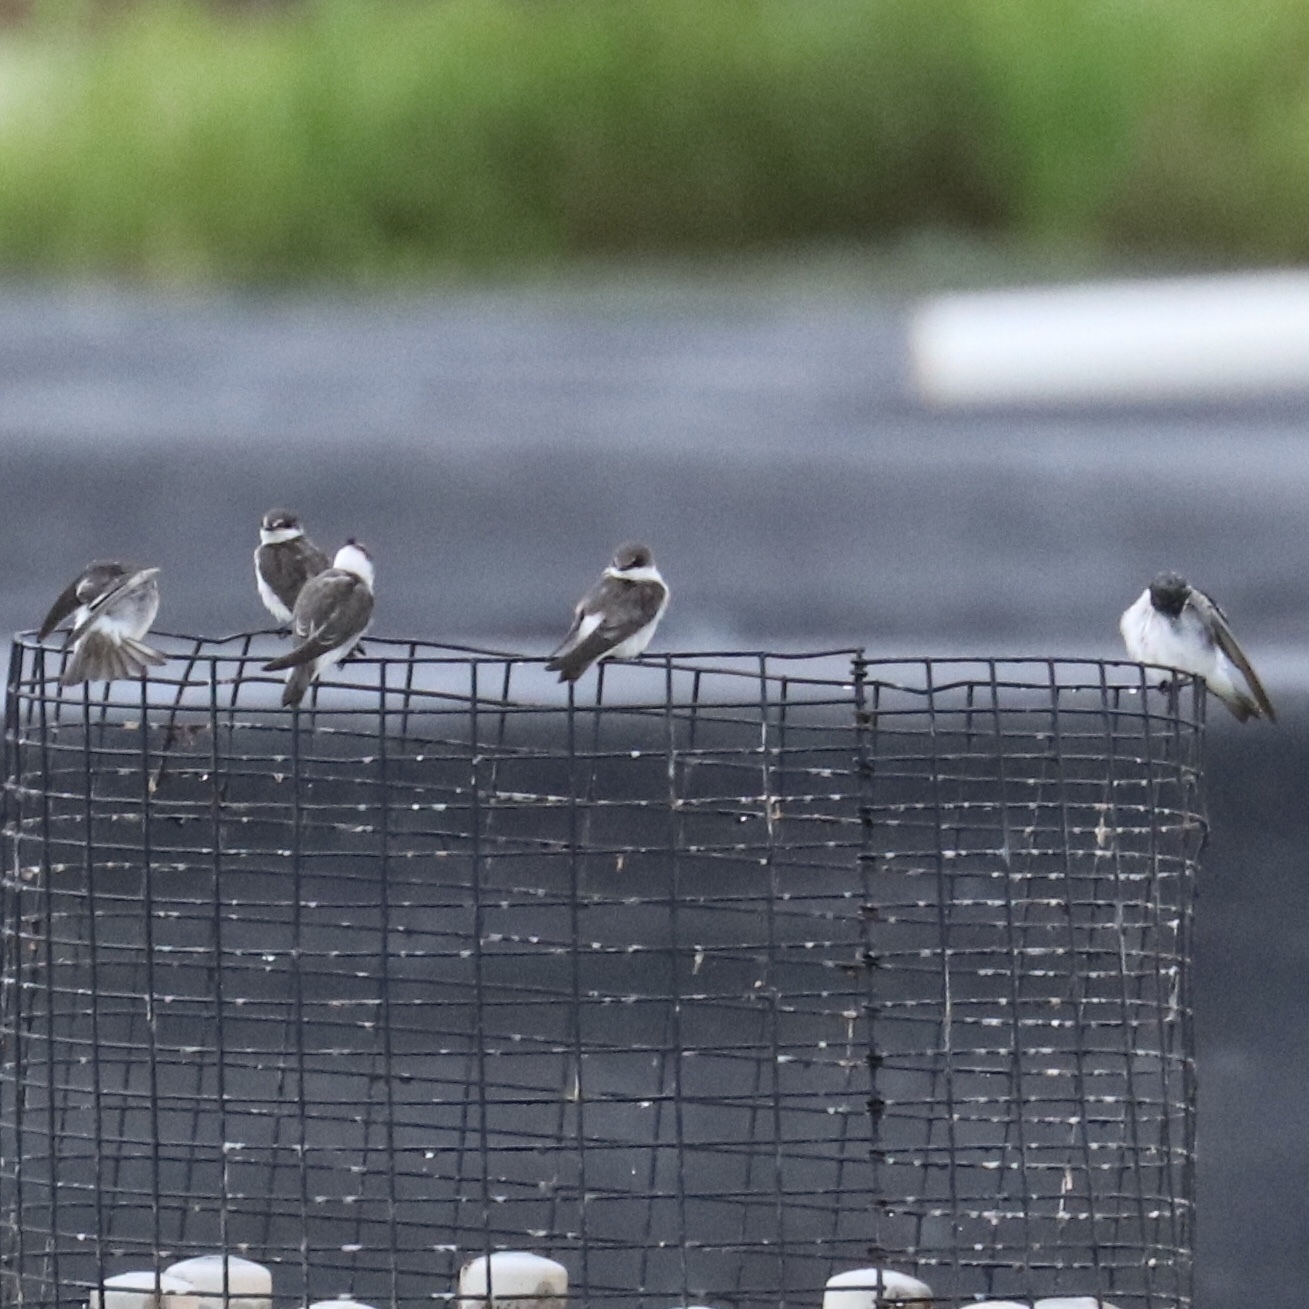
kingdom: Animalia
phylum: Chordata
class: Aves
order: Passeriformes
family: Hirundinidae
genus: Tachycineta
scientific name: Tachycineta albilinea
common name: Mangrove swallow
